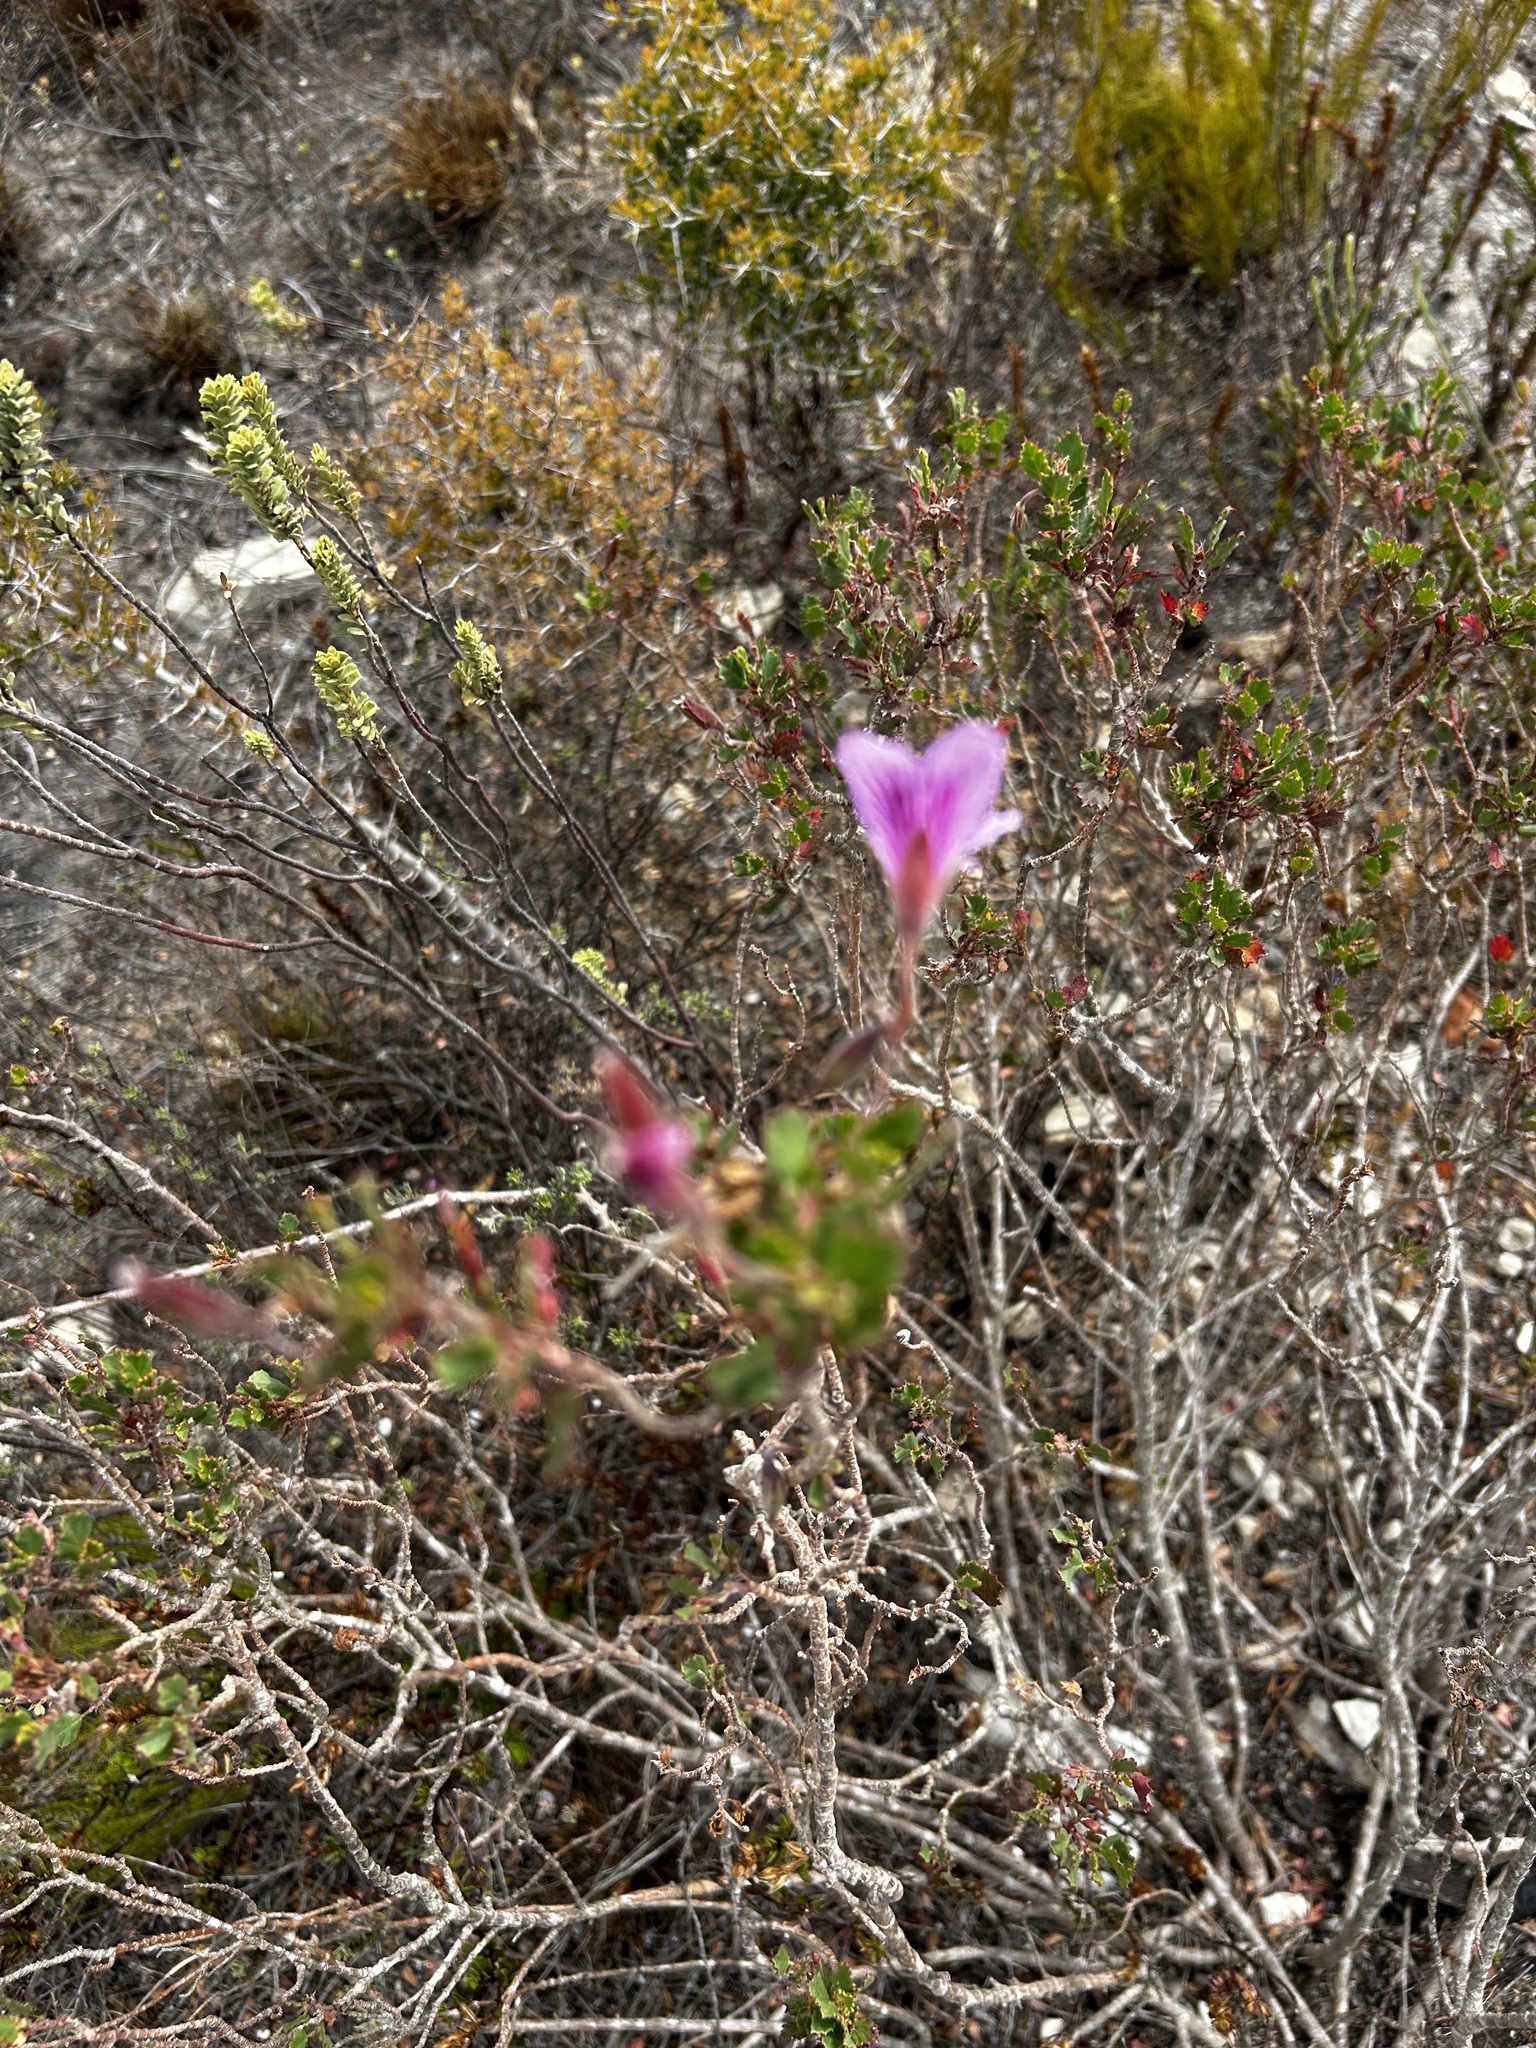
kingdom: Plantae
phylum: Tracheophyta
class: Magnoliopsida
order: Geraniales
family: Geraniaceae
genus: Pelargonium
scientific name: Pelargonium betulinum
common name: Birch-leaf pelargonium
